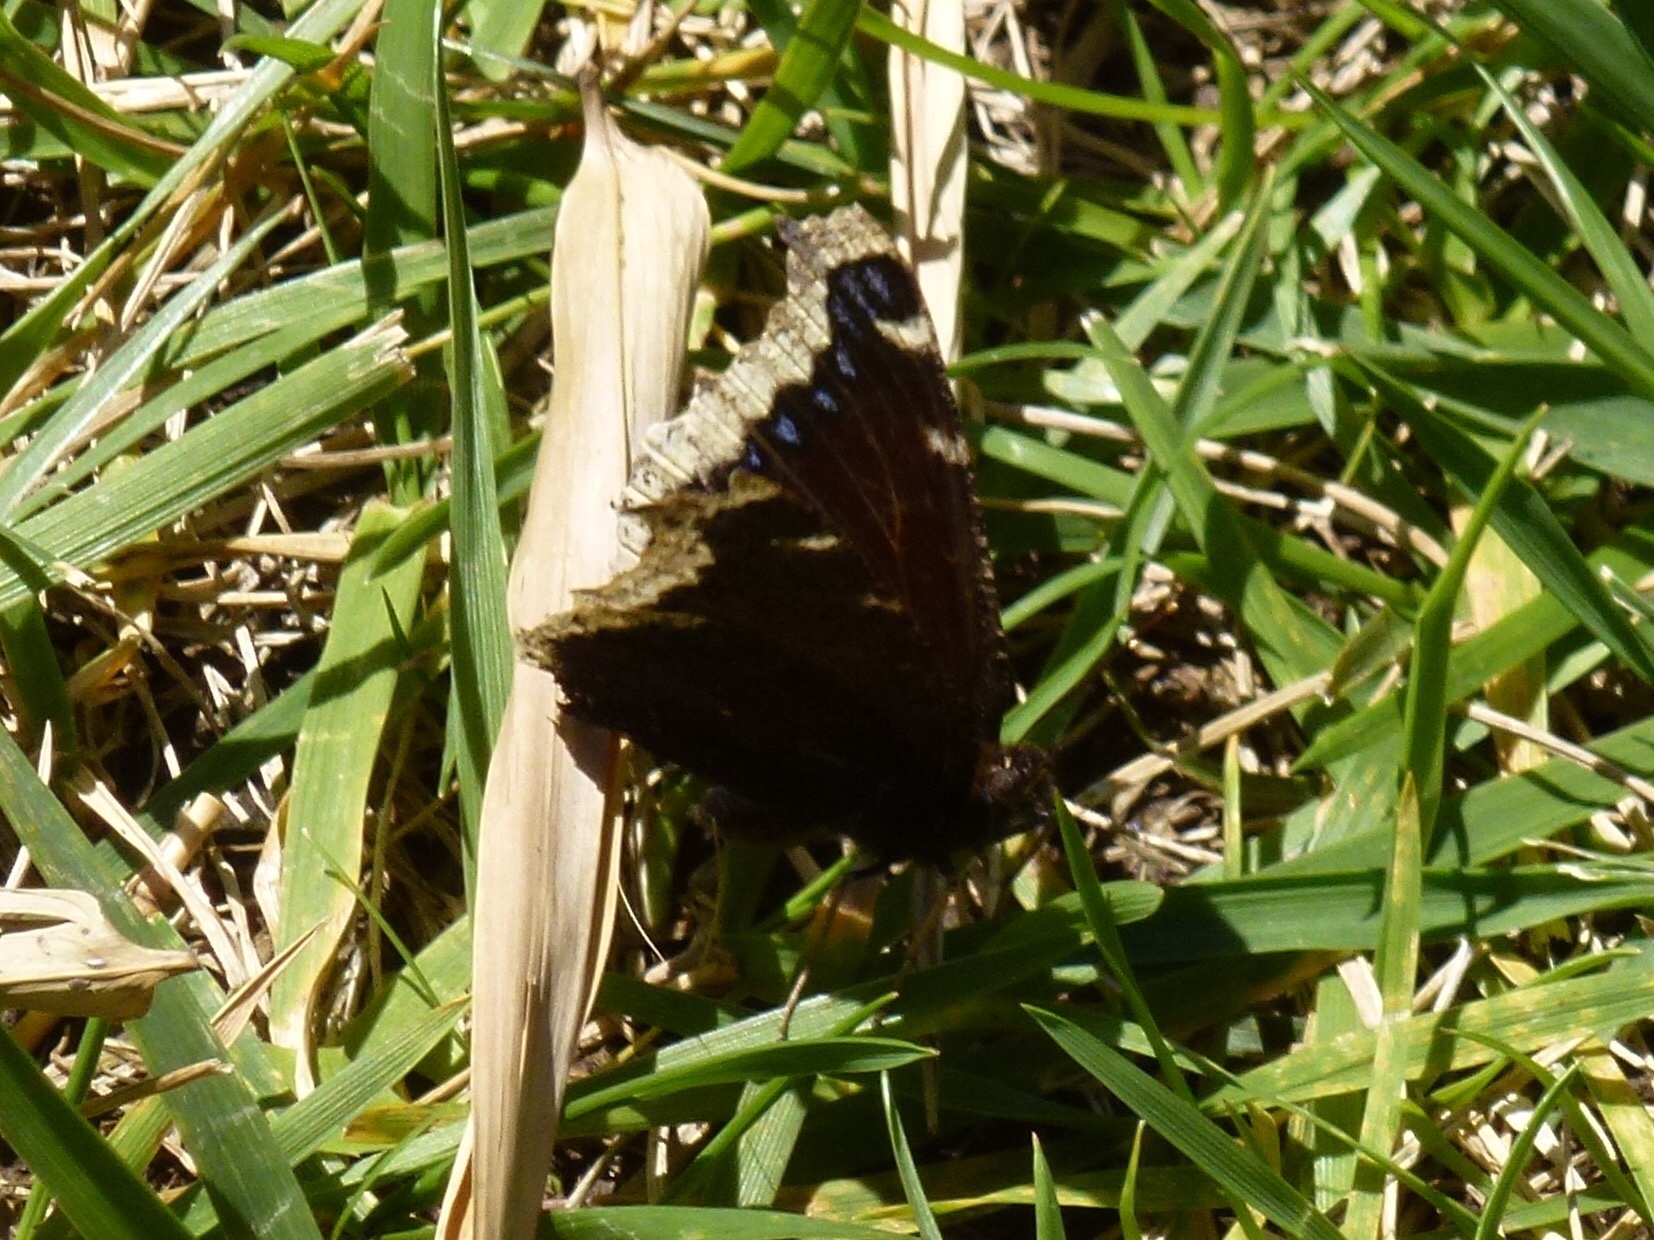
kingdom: Animalia
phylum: Arthropoda
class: Insecta
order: Lepidoptera
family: Nymphalidae
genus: Nymphalis
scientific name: Nymphalis antiopa
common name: Camberwell beauty
